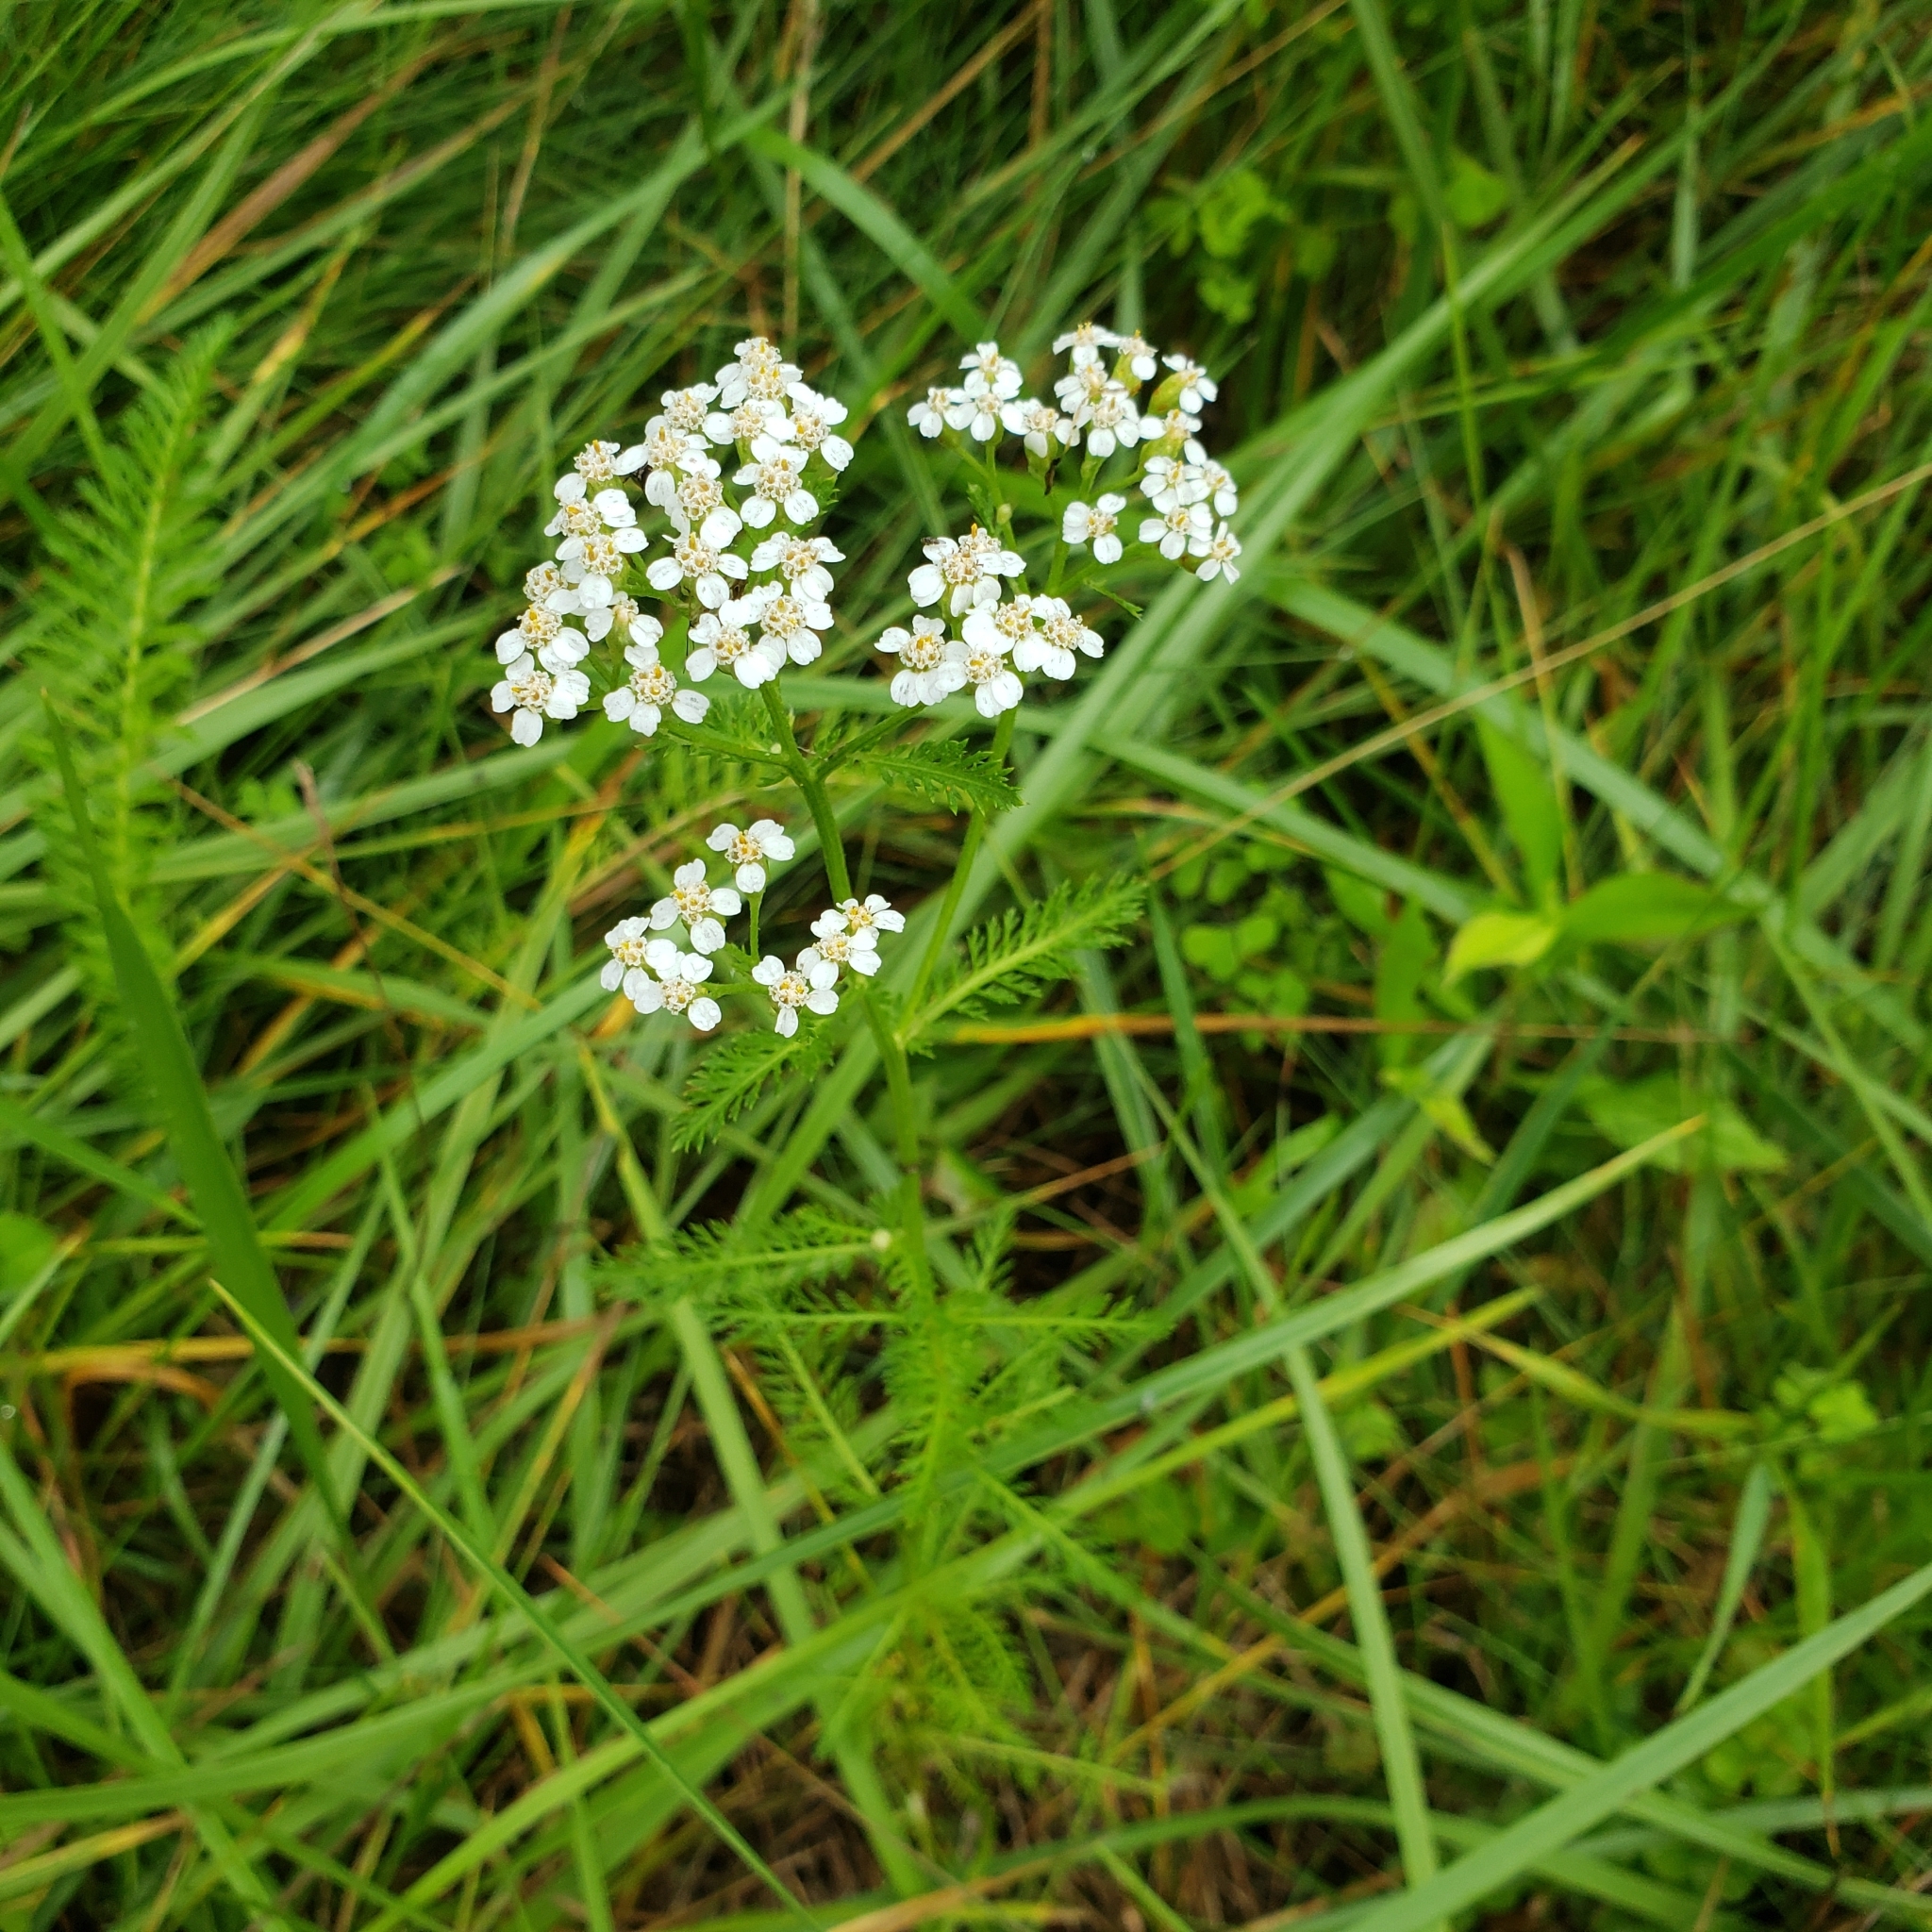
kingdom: Plantae
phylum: Tracheophyta
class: Magnoliopsida
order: Asterales
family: Asteraceae
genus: Achillea
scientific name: Achillea millefolium
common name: Yarrow
